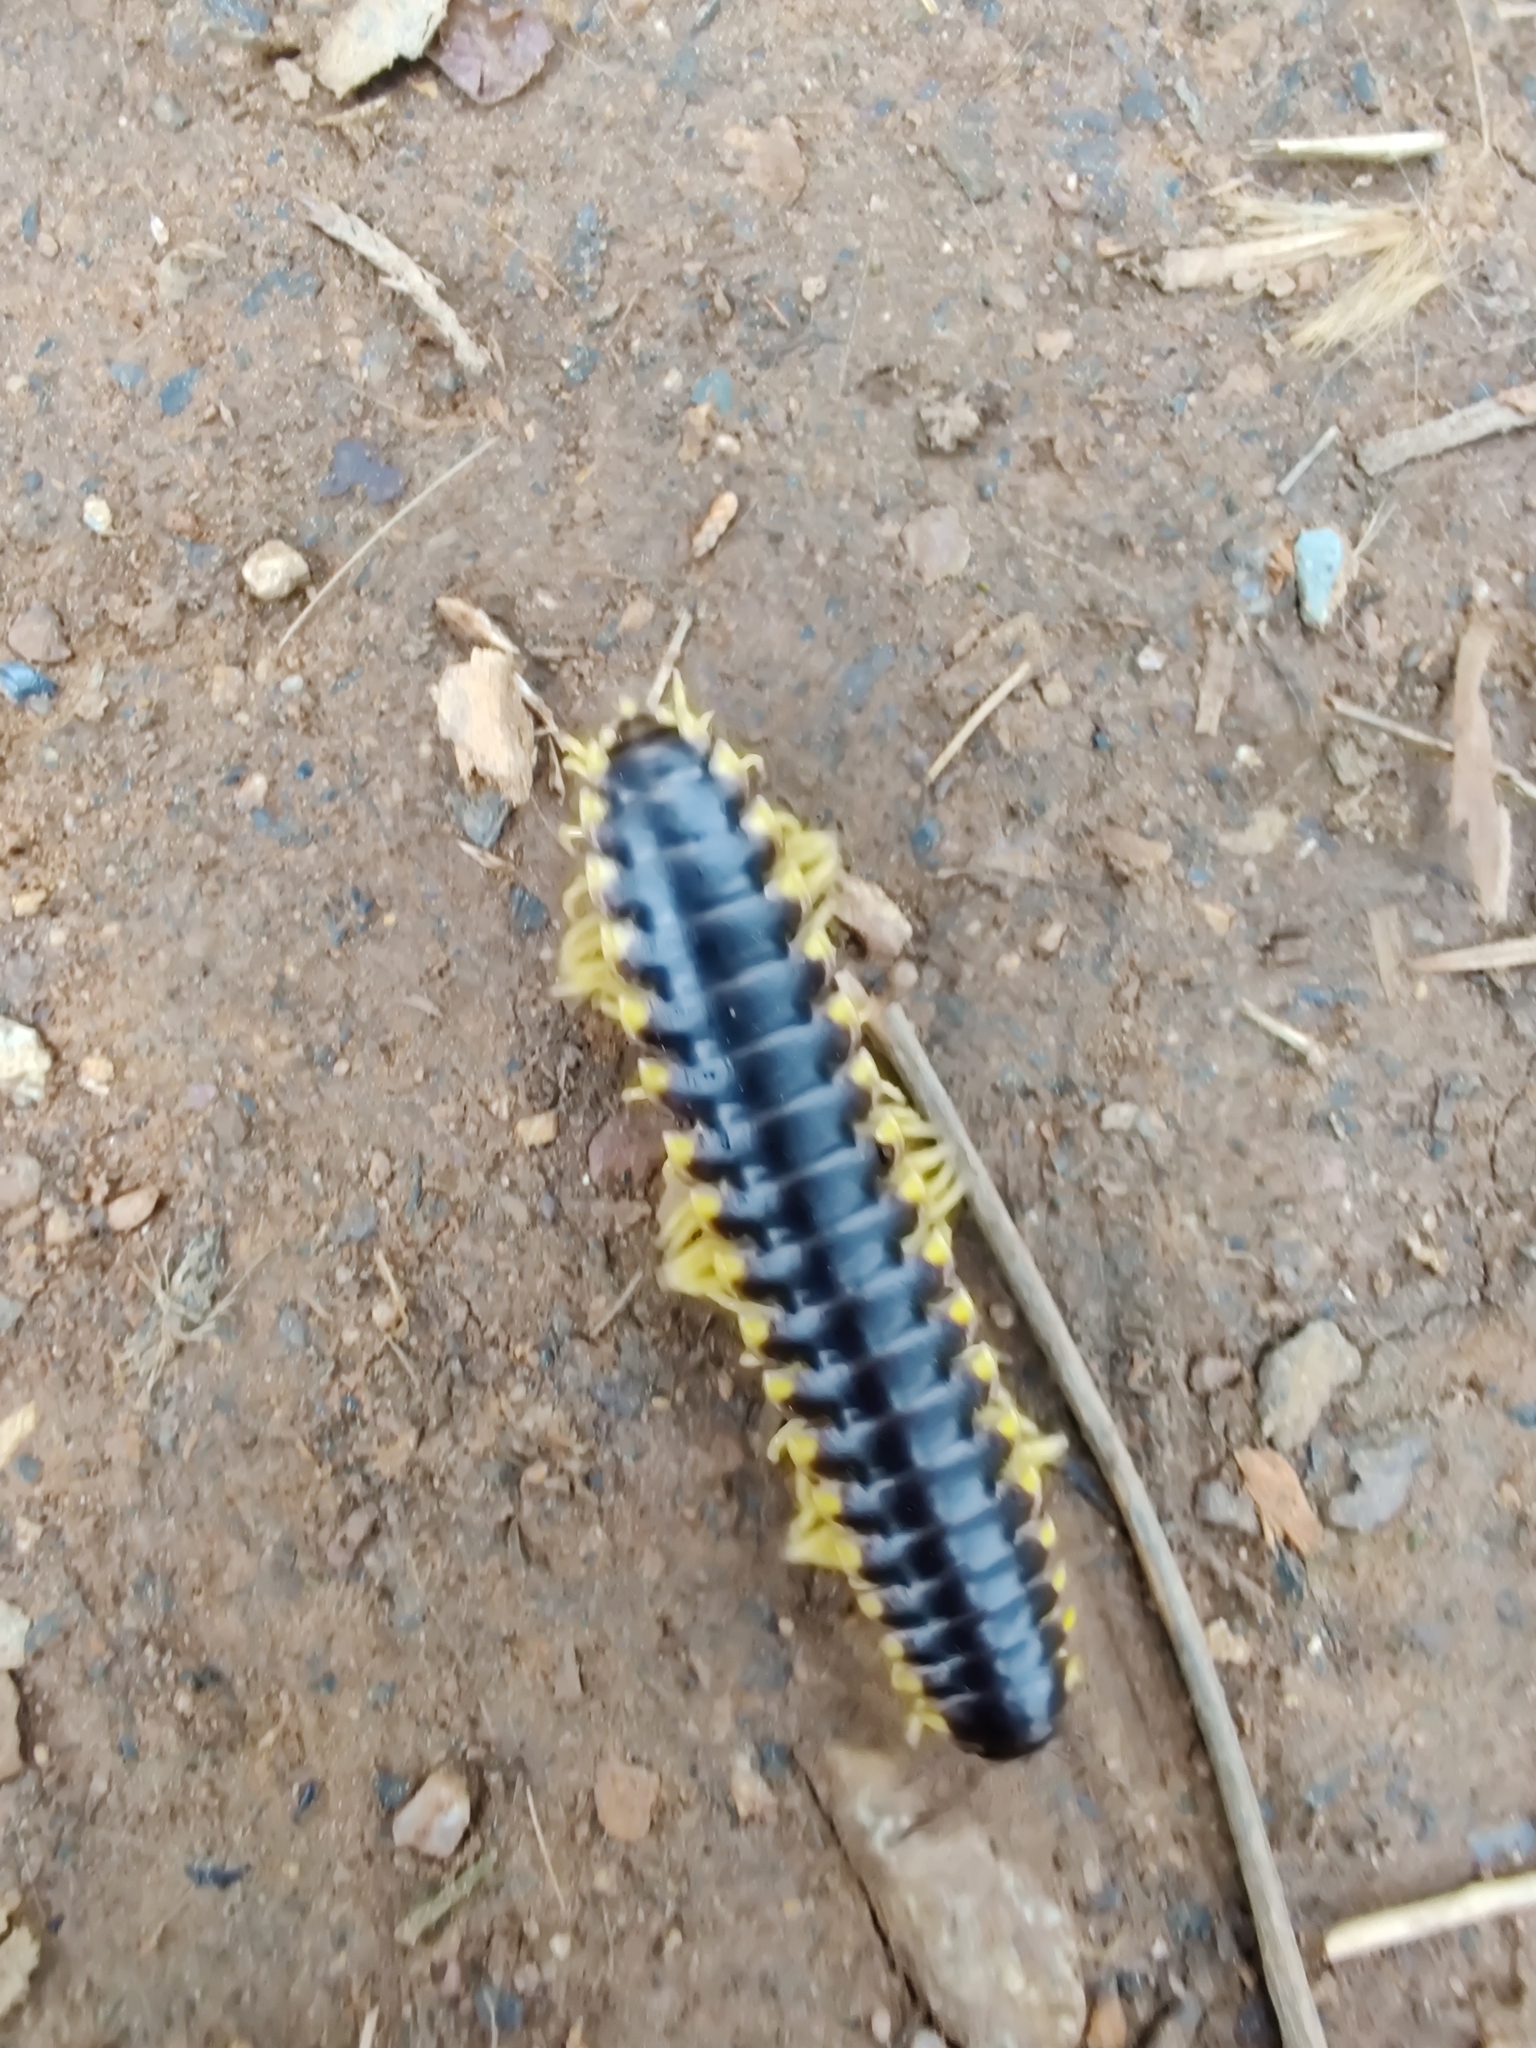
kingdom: Animalia
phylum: Arthropoda
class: Diplopoda
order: Polydesmida
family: Xystodesmidae
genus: Apheloria
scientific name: Apheloria tigana
